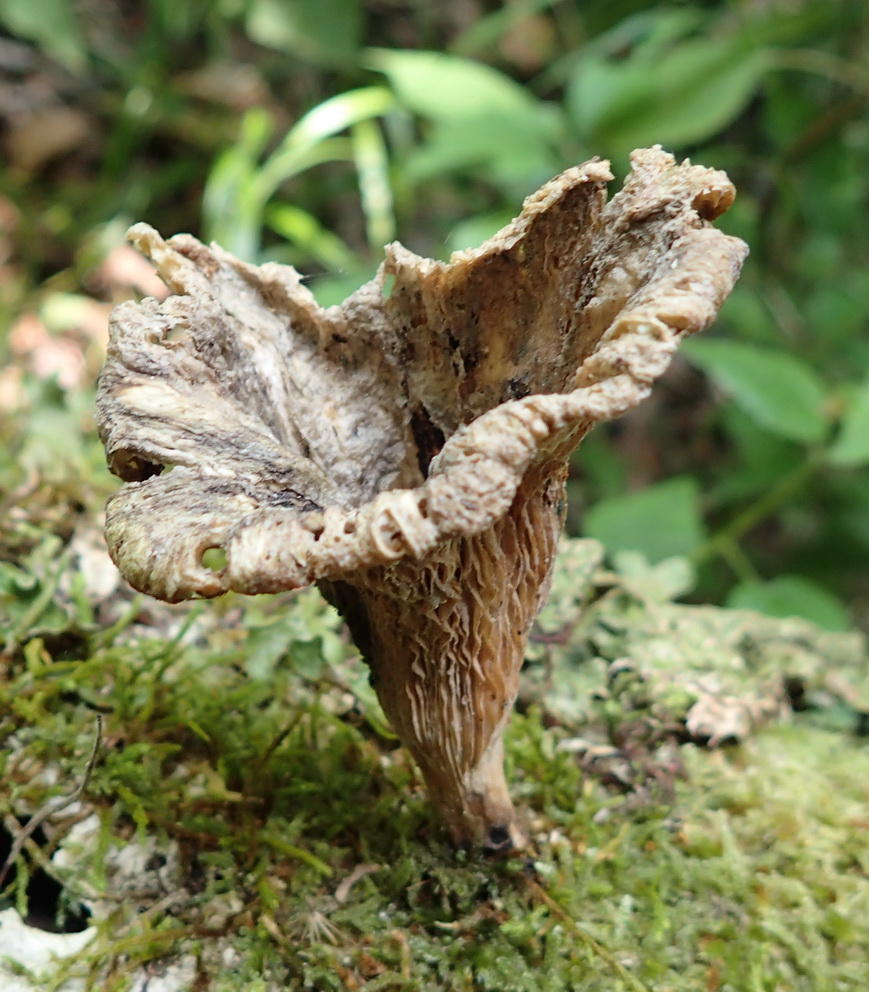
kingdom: Fungi
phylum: Basidiomycota
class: Agaricomycetes
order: Polyporales
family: Polyporaceae
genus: Lentinus
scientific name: Lentinus sajor-caju
